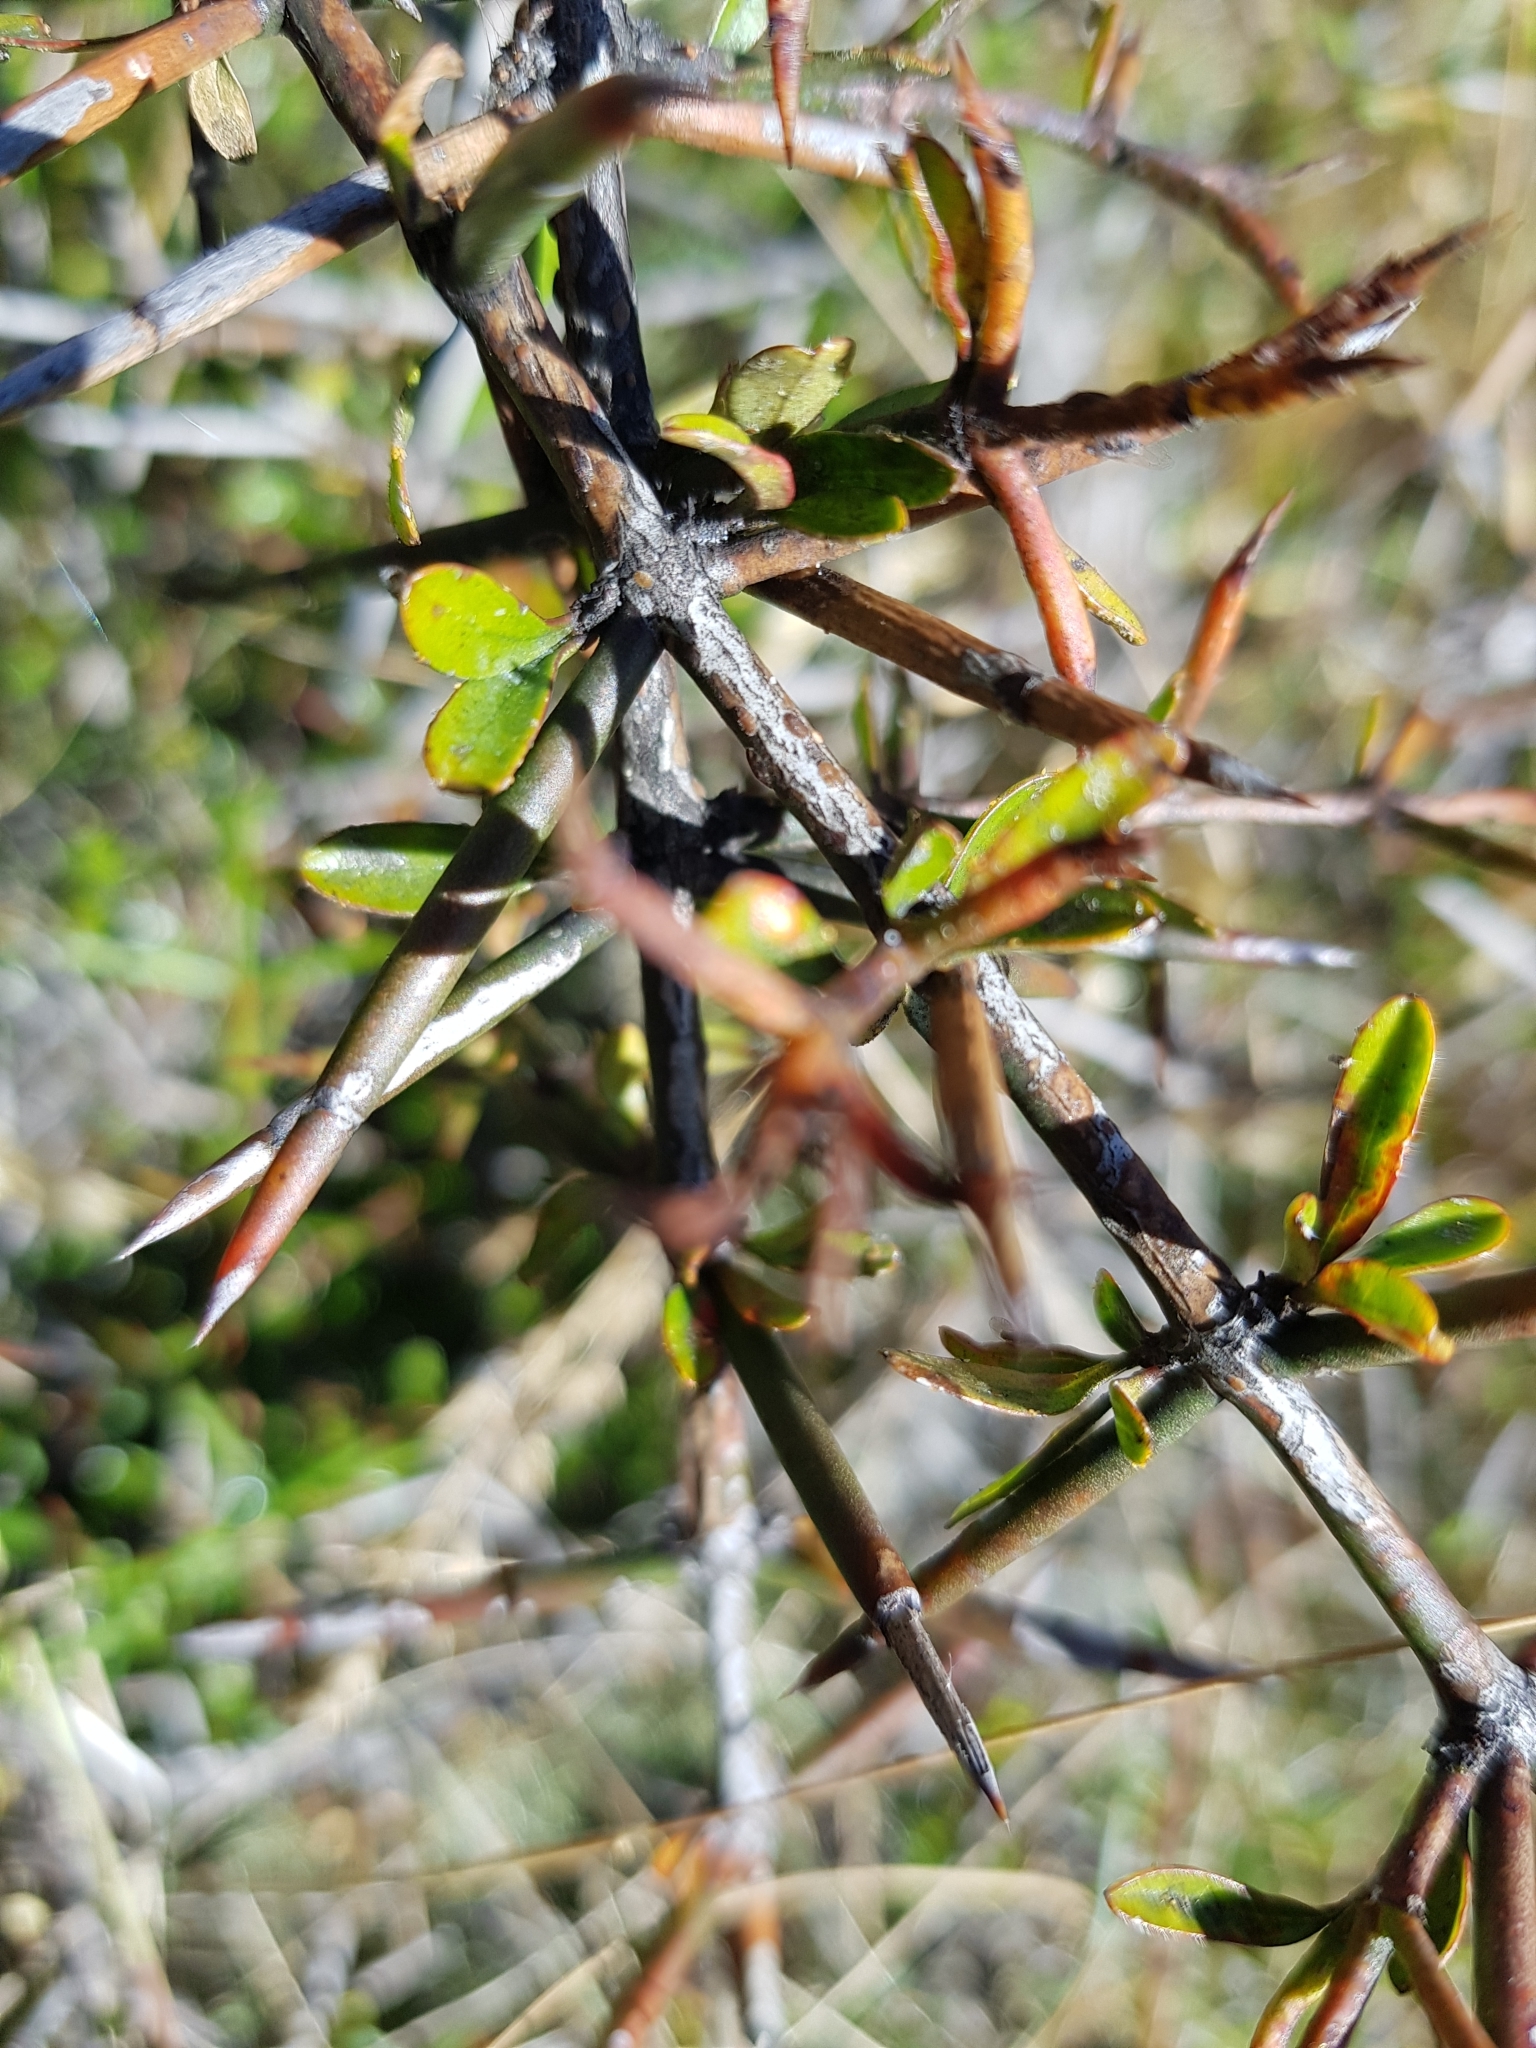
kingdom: Plantae
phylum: Tracheophyta
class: Magnoliopsida
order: Rosales
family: Rhamnaceae
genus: Discaria
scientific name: Discaria toumatou
